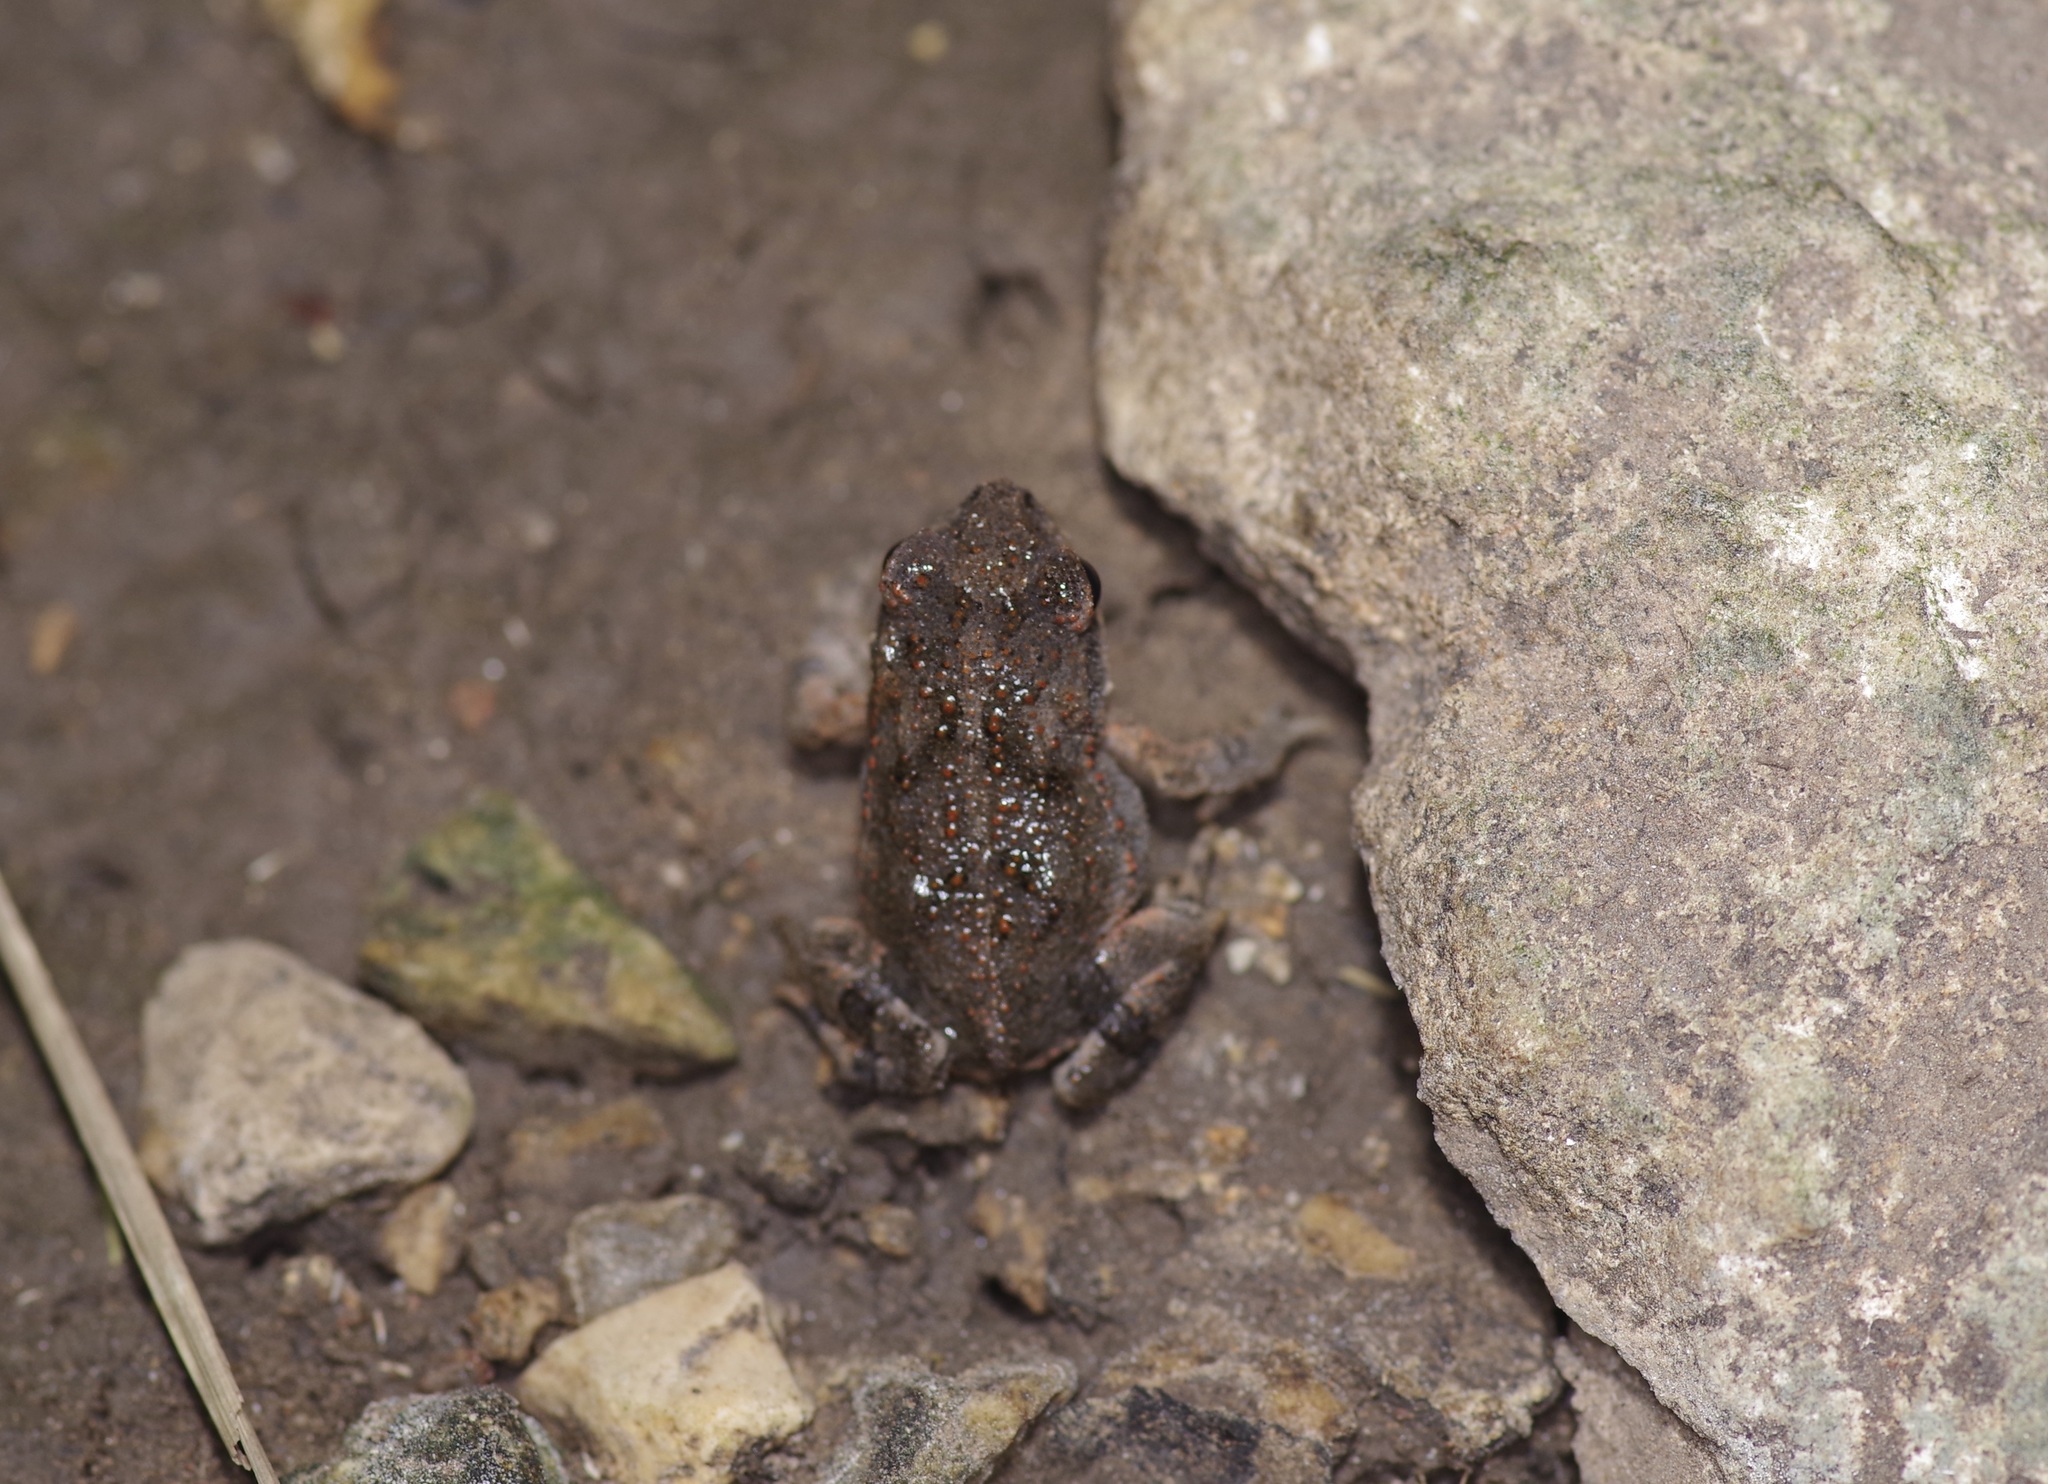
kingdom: Animalia
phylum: Chordata
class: Amphibia
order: Anura
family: Bufonidae
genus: Incilius
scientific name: Incilius nebulifer
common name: Gulf coast toad
